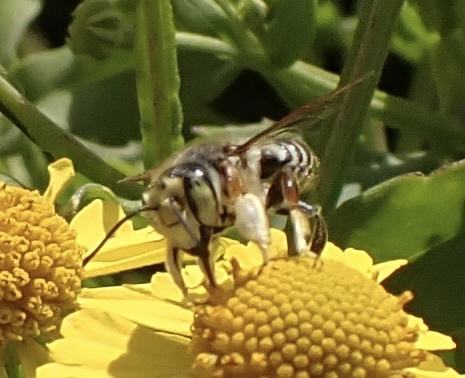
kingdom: Animalia
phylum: Arthropoda
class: Insecta
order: Hymenoptera
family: Megachilidae
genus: Megachile
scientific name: Megachile albitarsis
